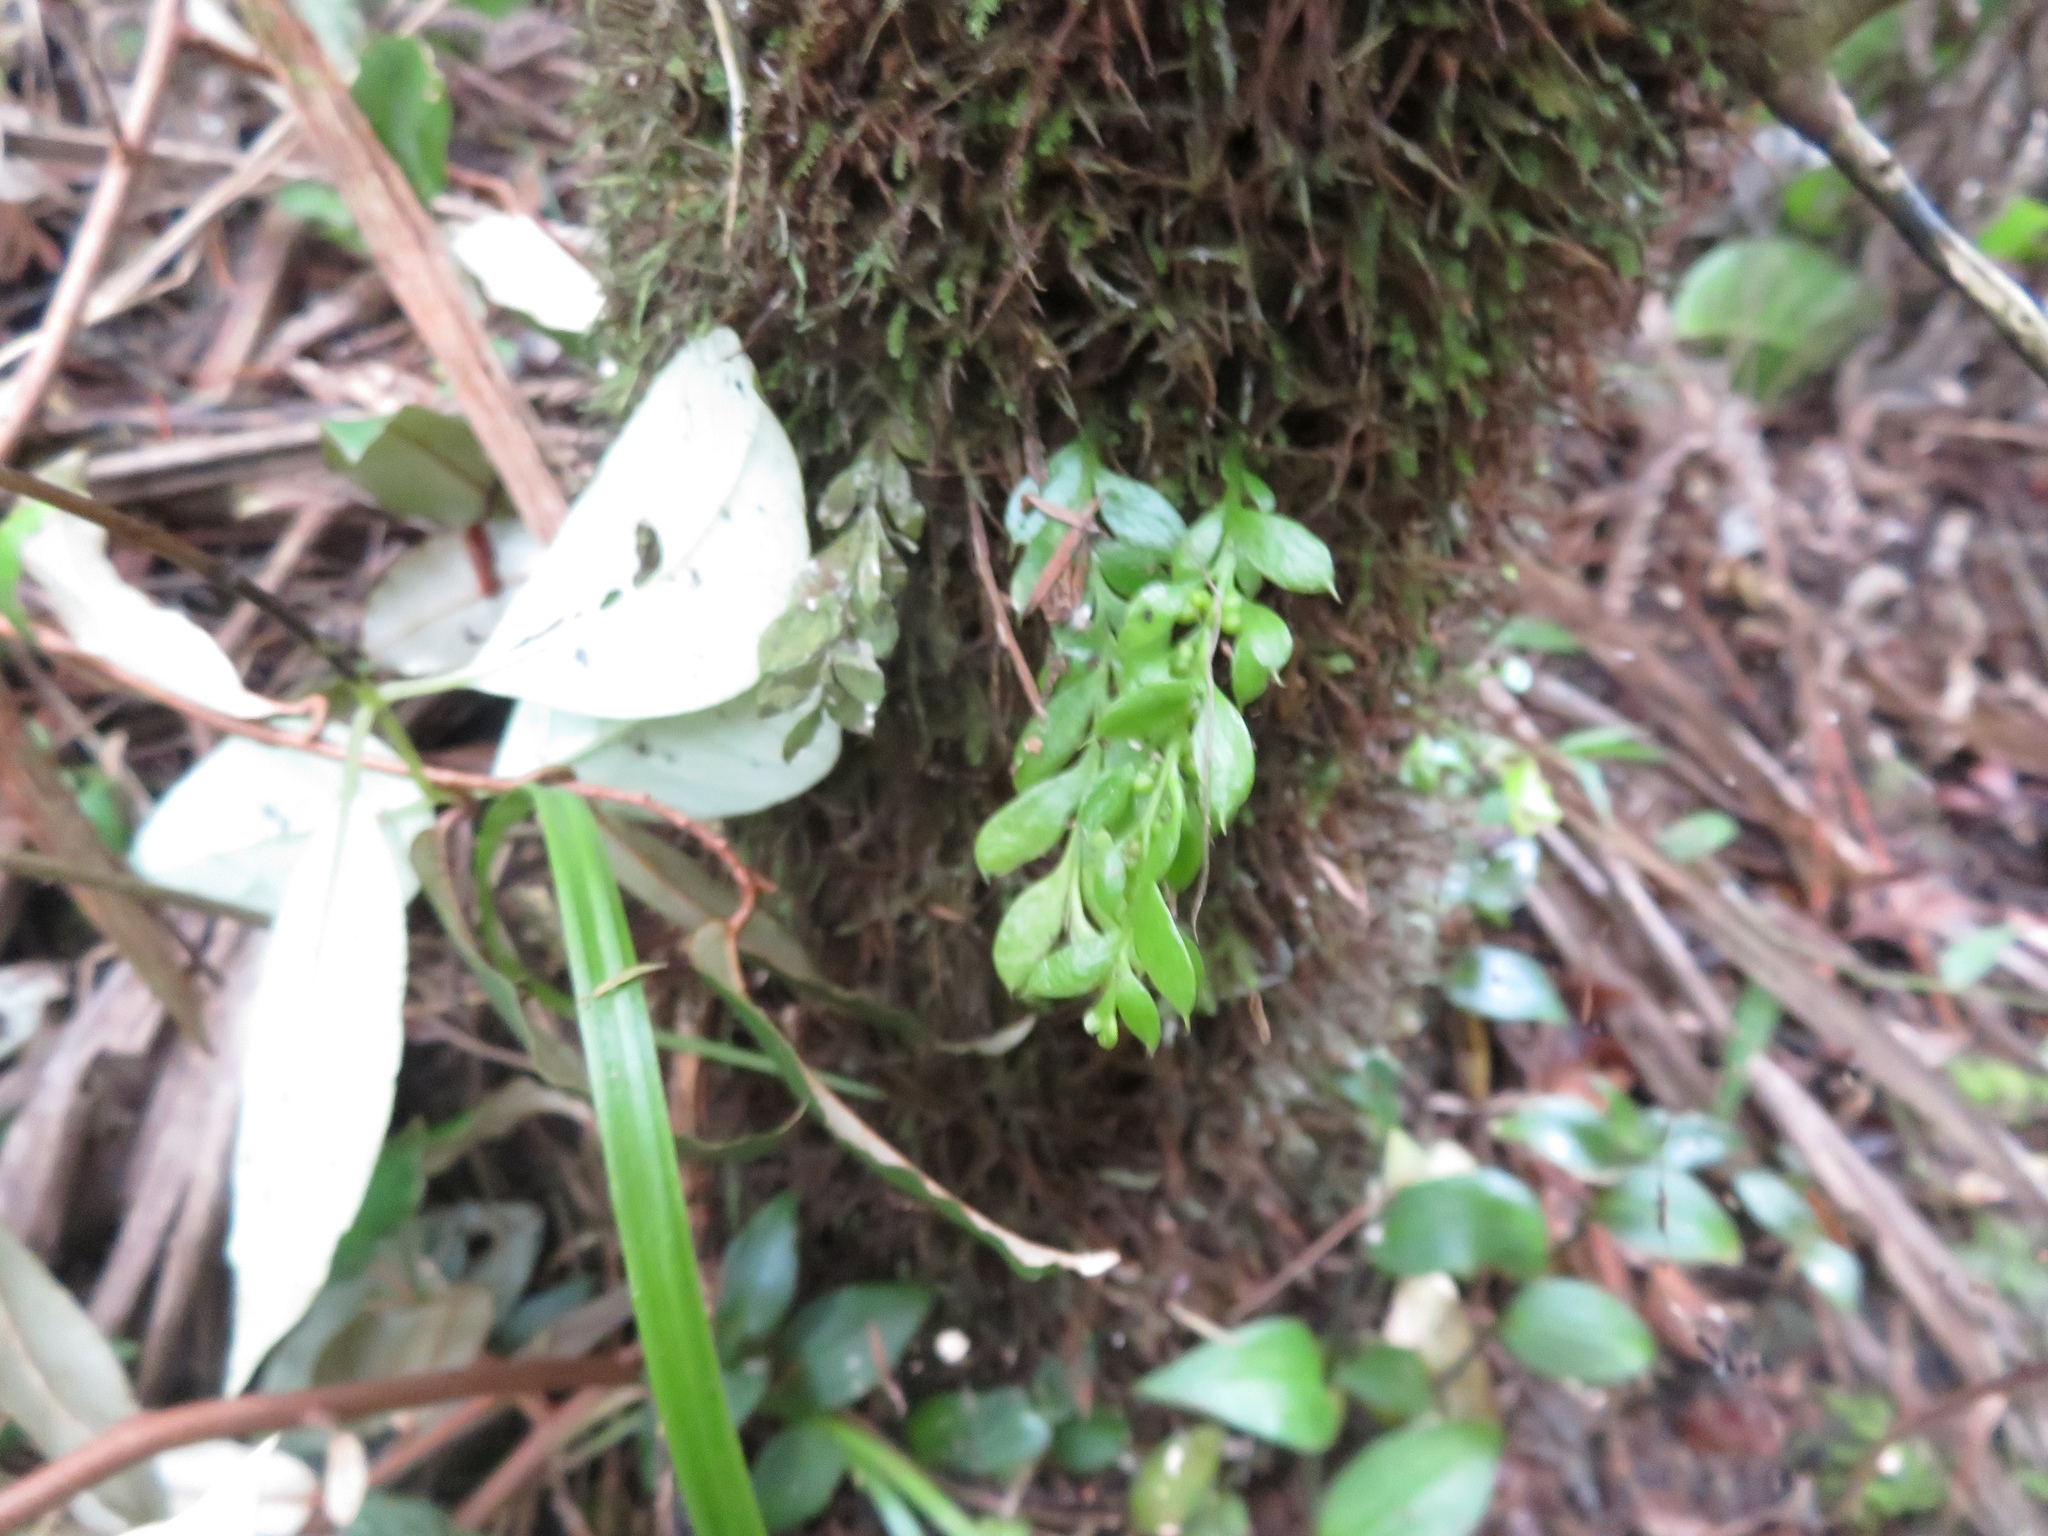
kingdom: Plantae
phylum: Tracheophyta
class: Polypodiopsida
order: Psilotales
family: Psilotaceae
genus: Tmesipteris
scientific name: Tmesipteris lanceolata
